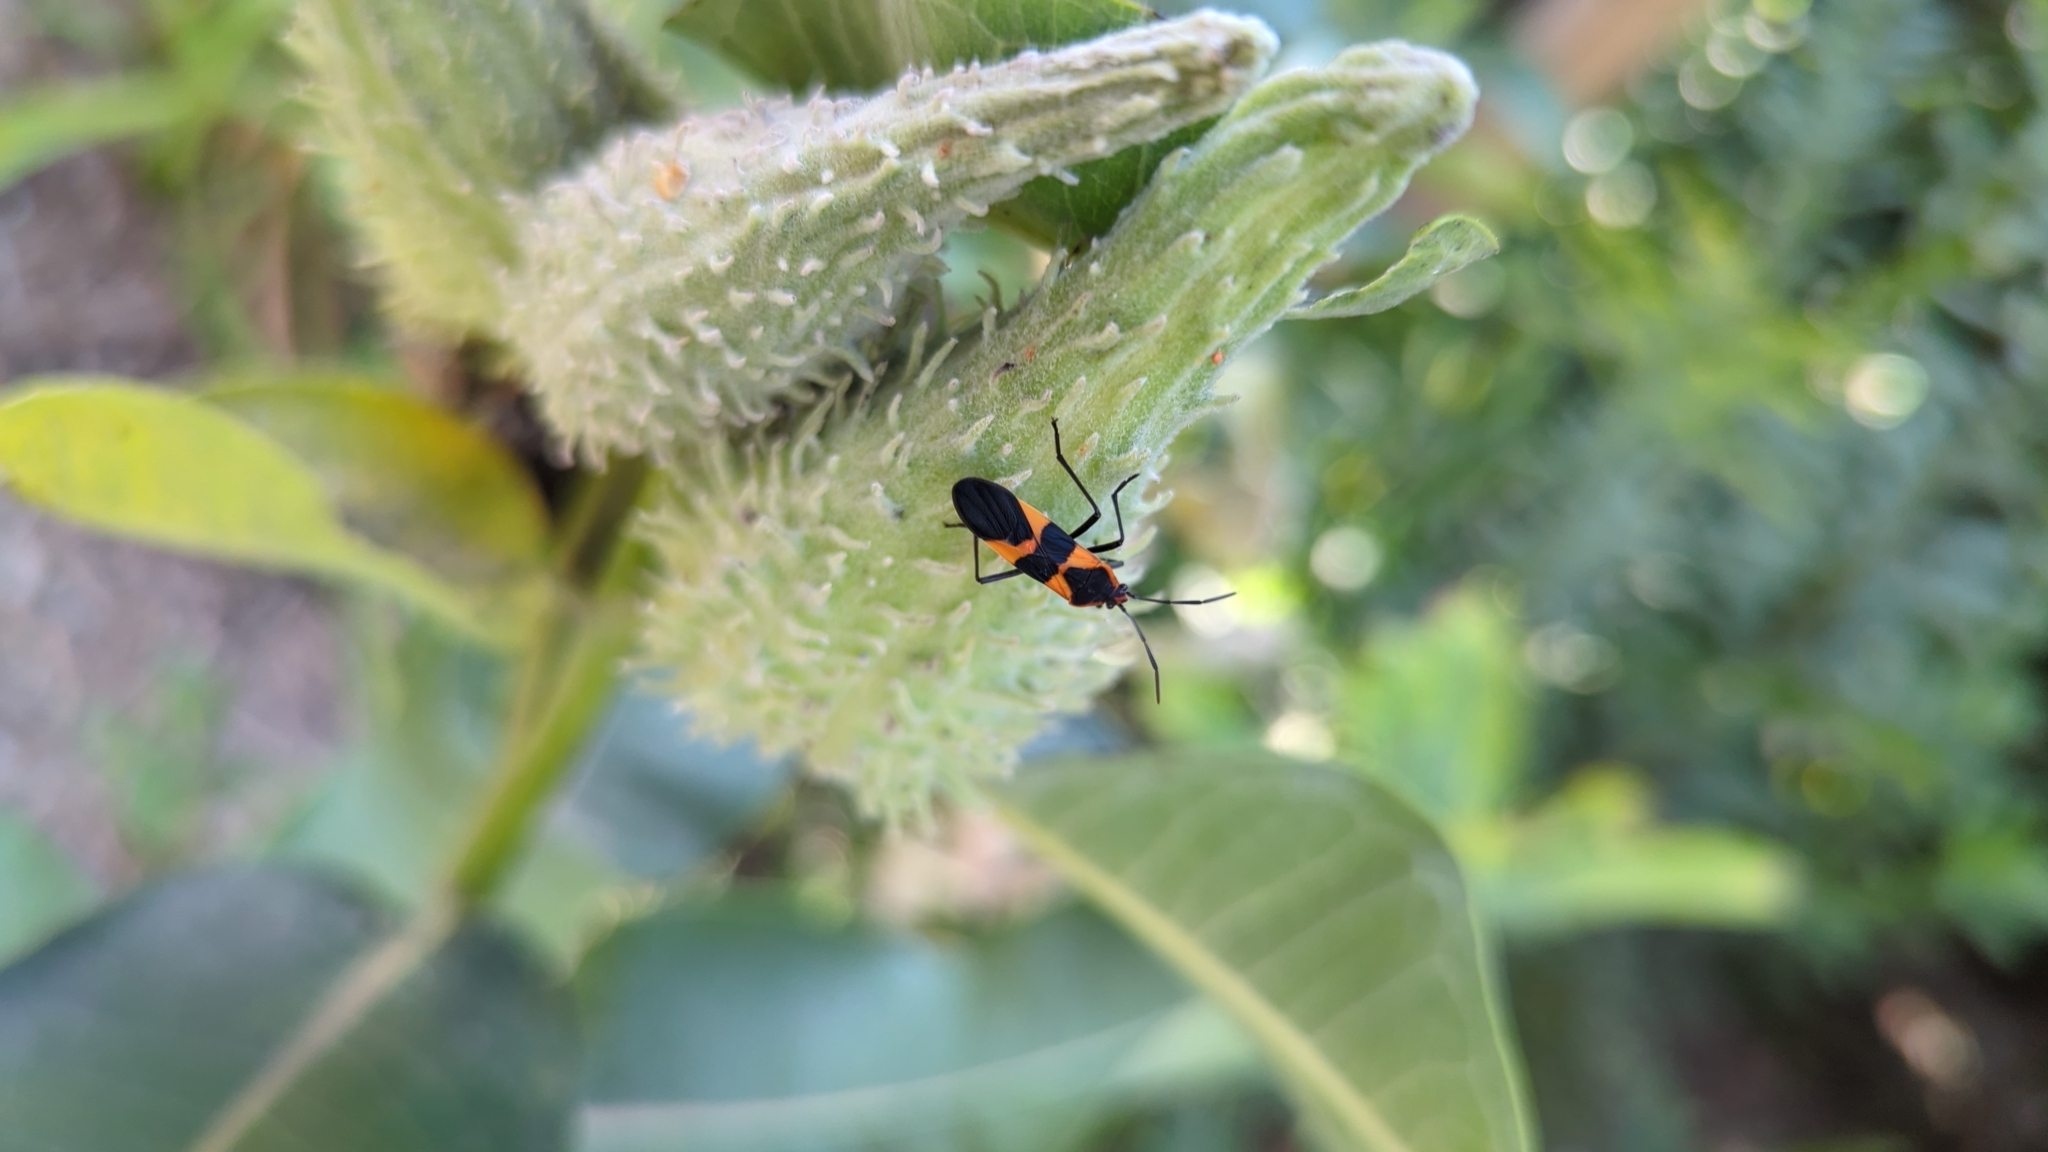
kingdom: Animalia
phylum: Arthropoda
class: Insecta
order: Hemiptera
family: Lygaeidae
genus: Oncopeltus
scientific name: Oncopeltus fasciatus
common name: Large milkweed bug
